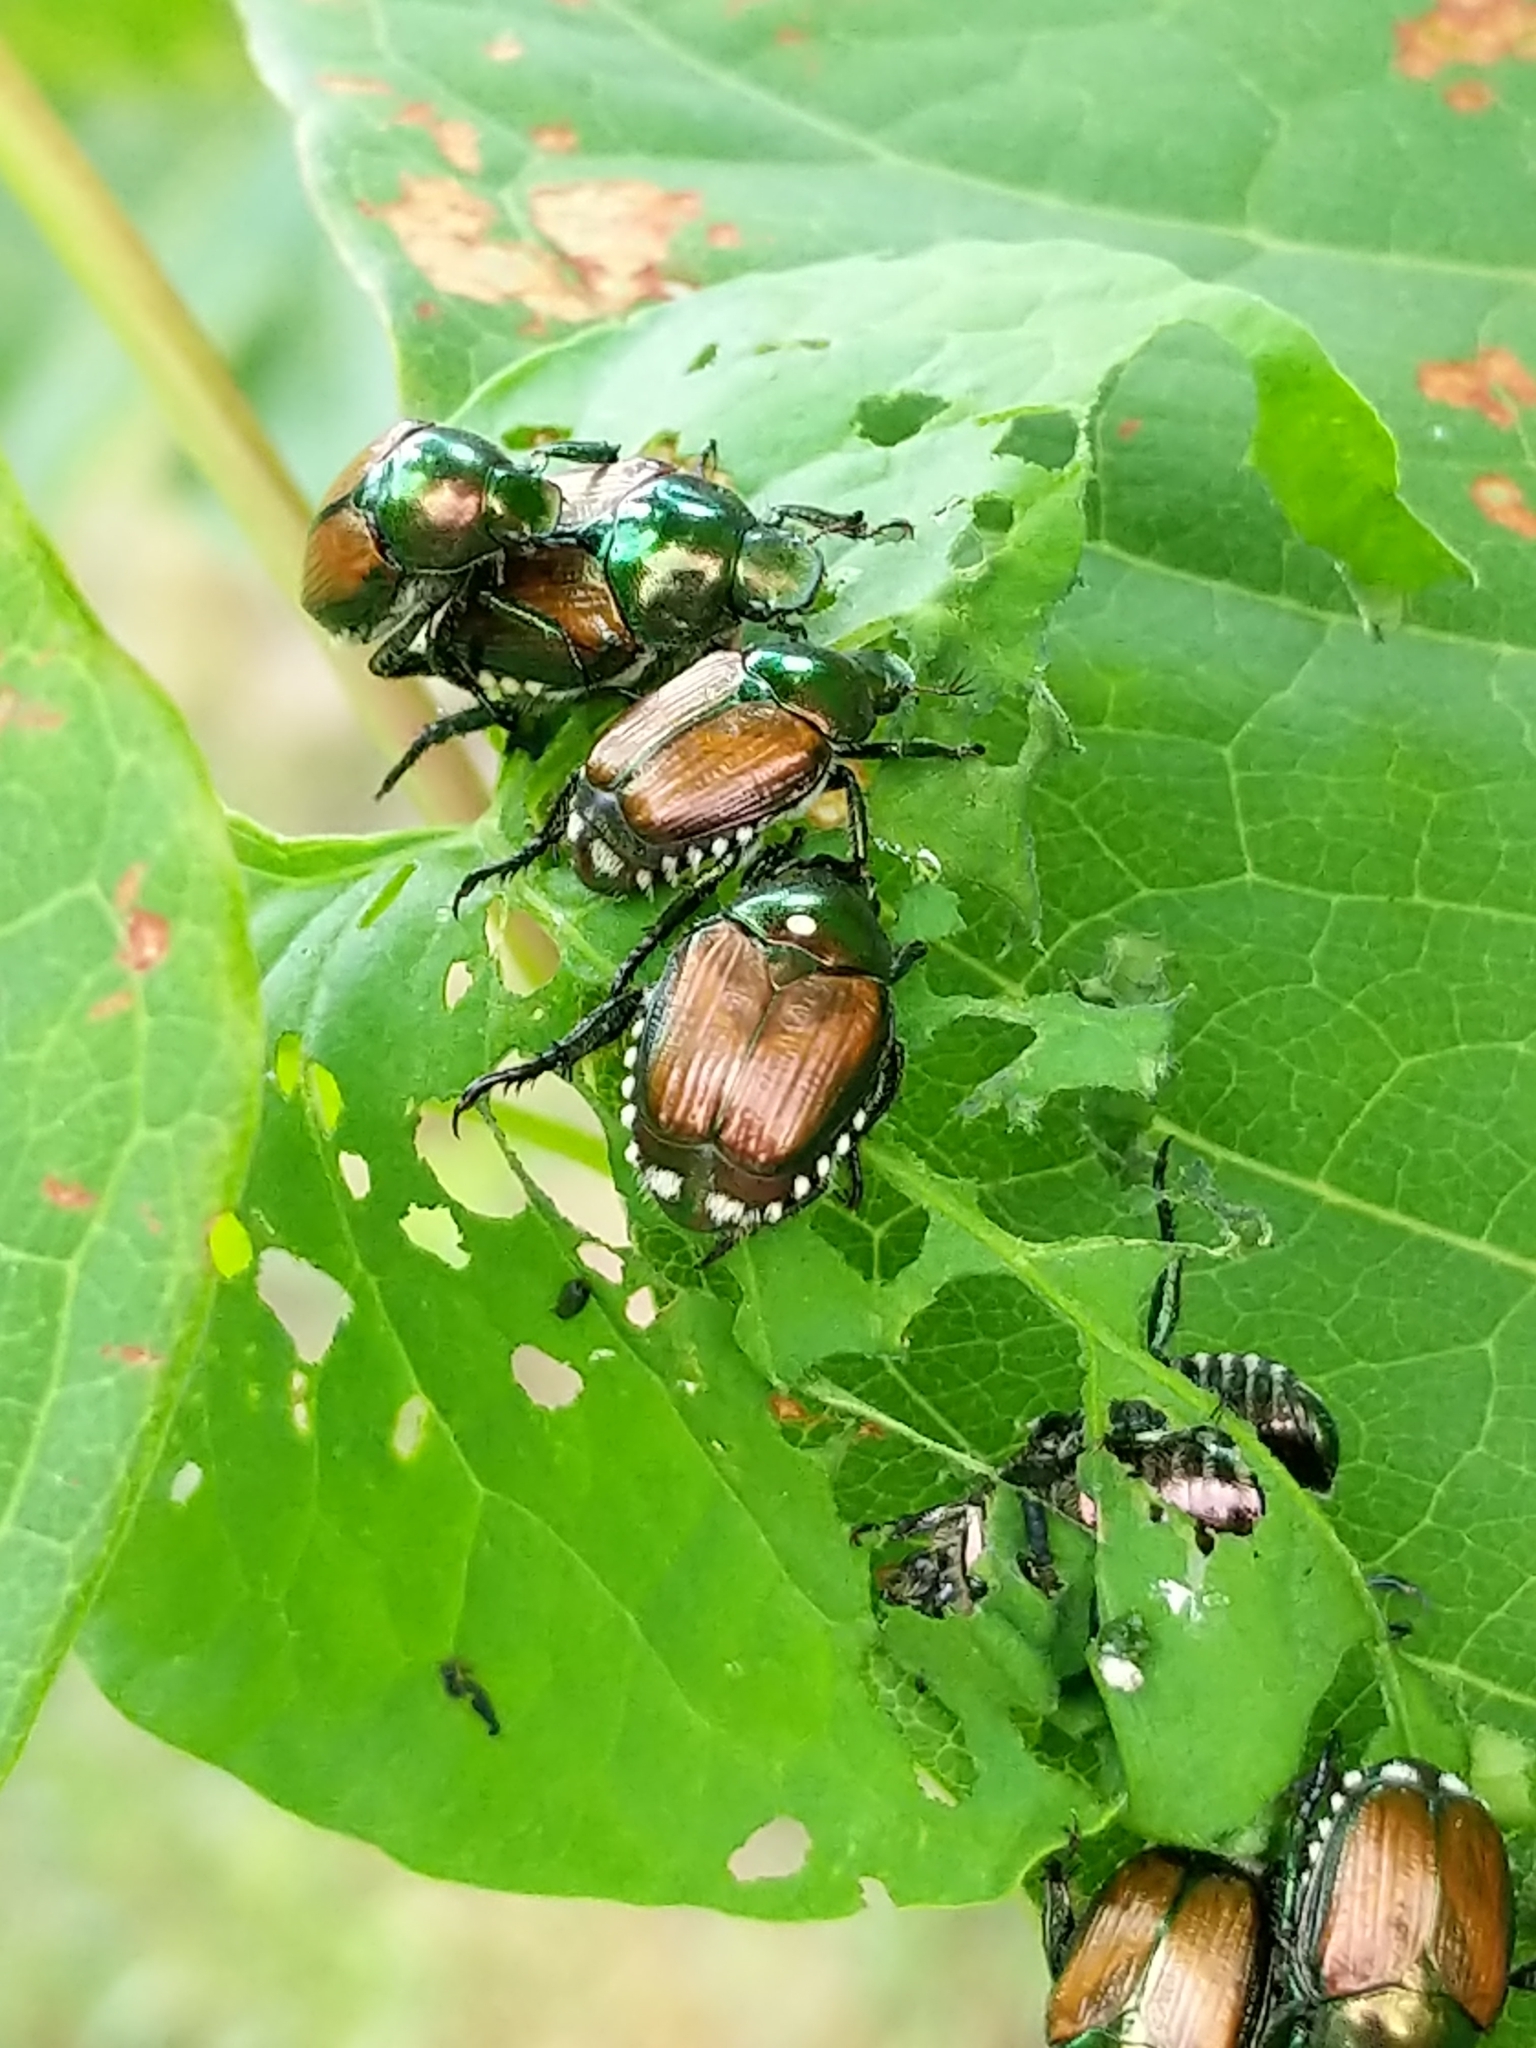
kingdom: Animalia
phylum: Arthropoda
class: Insecta
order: Diptera
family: Tachinidae
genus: Istocheta
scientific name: Istocheta aldrichi
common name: Parasitic wasp
